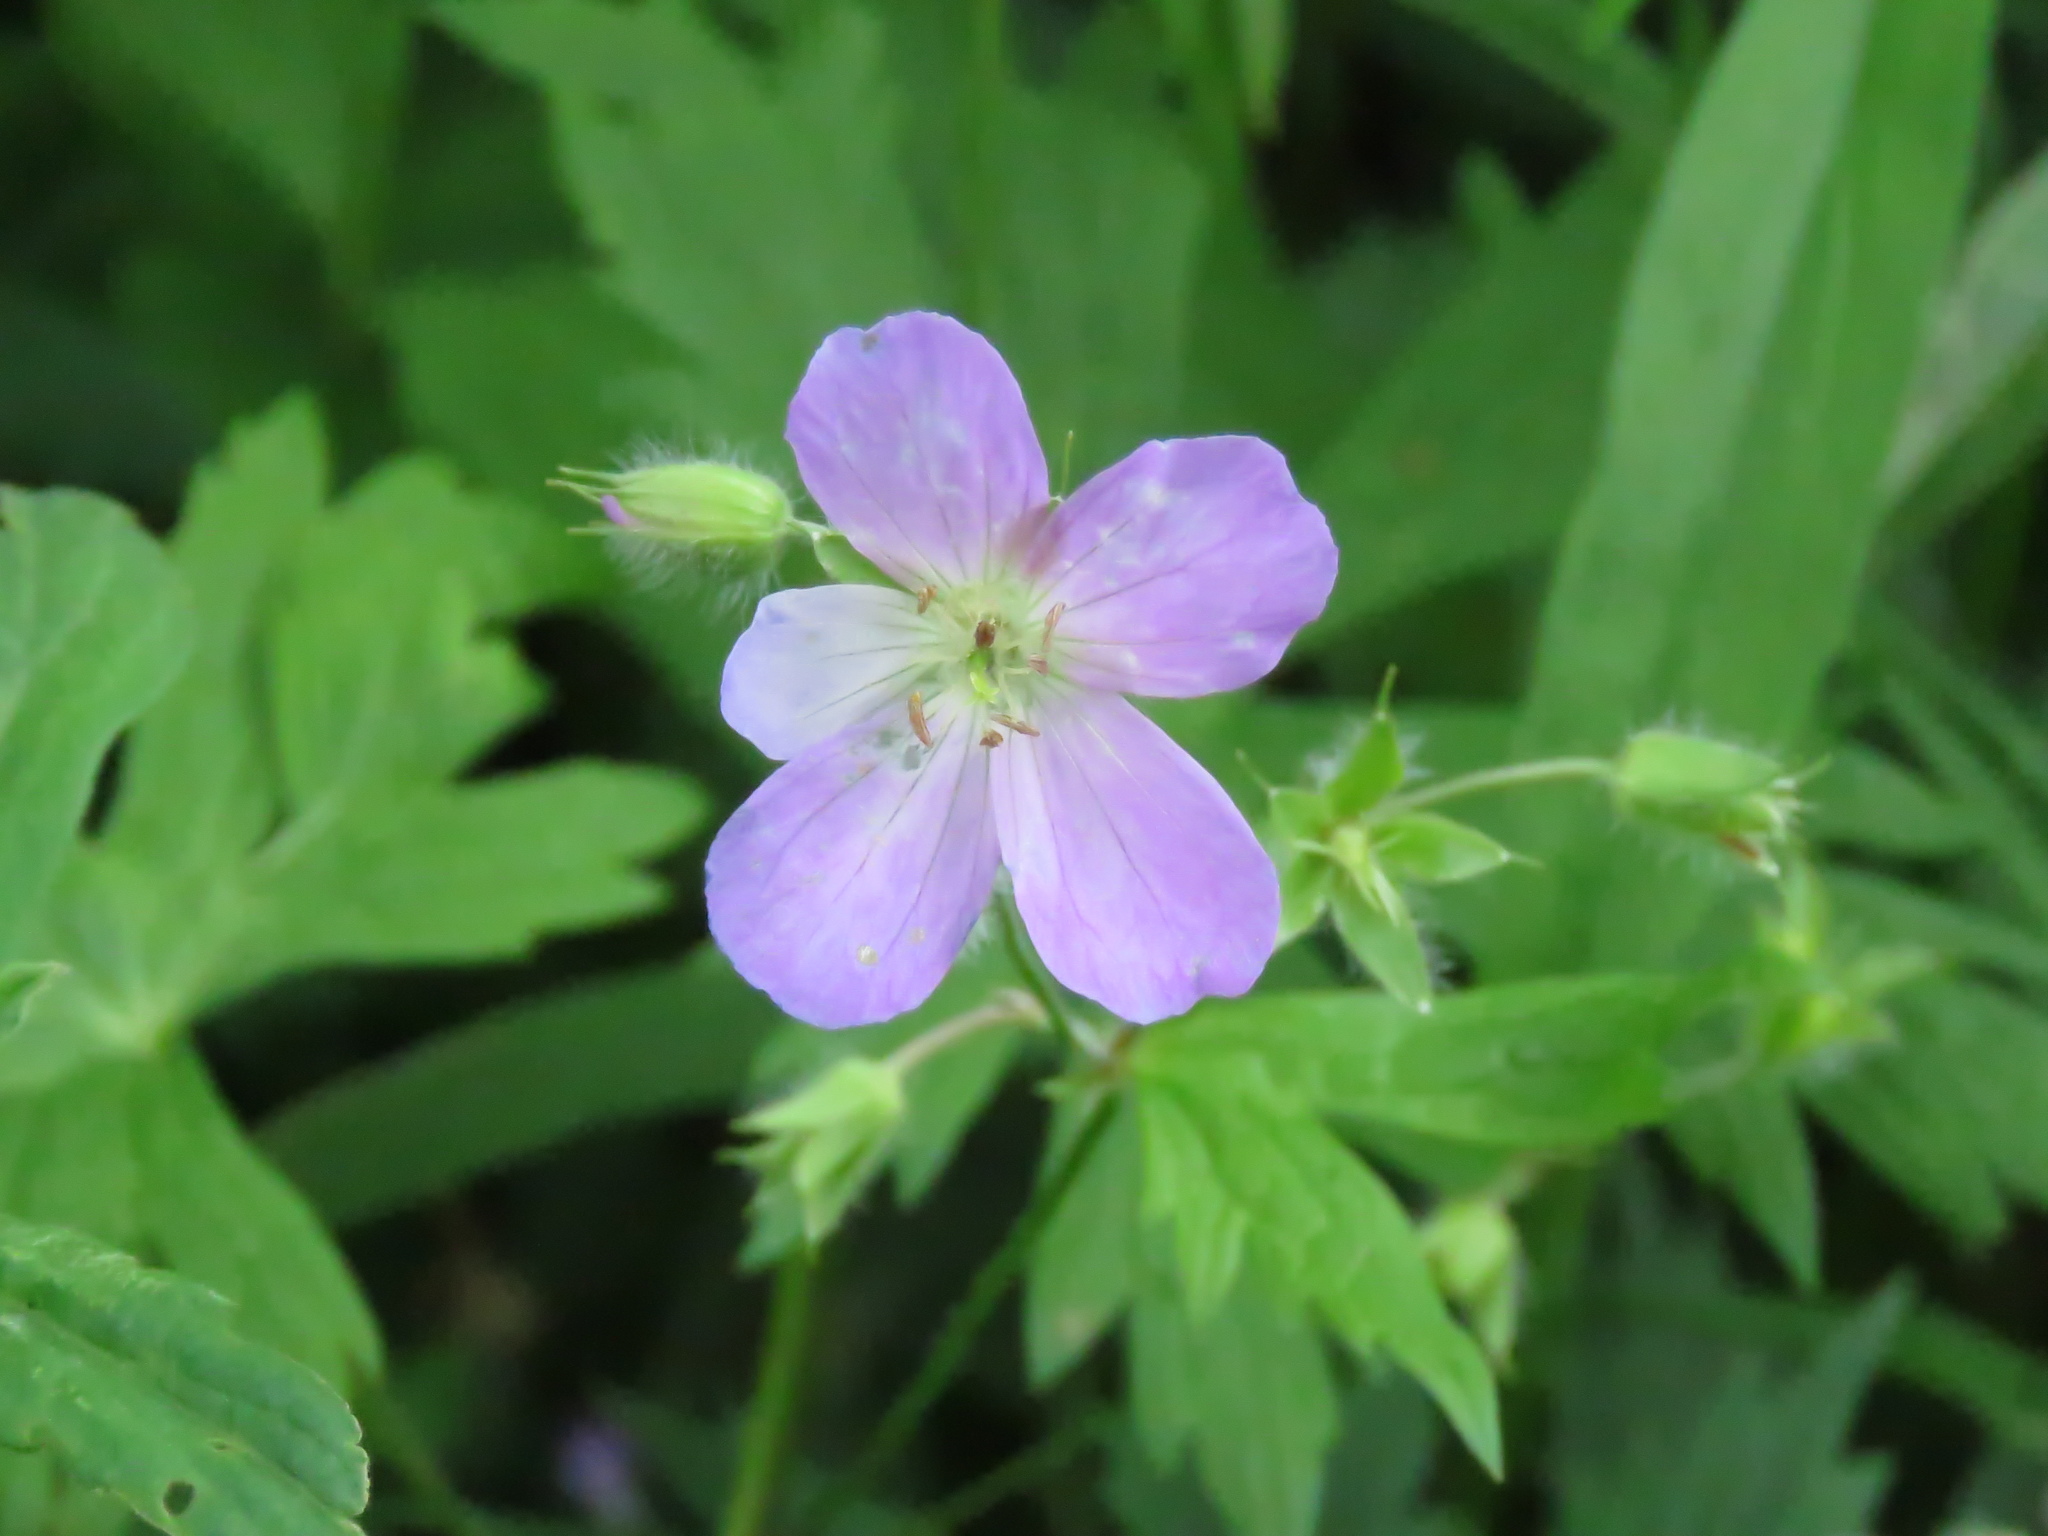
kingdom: Plantae
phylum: Tracheophyta
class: Magnoliopsida
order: Geraniales
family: Geraniaceae
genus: Geranium
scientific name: Geranium maculatum
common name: Spotted geranium
